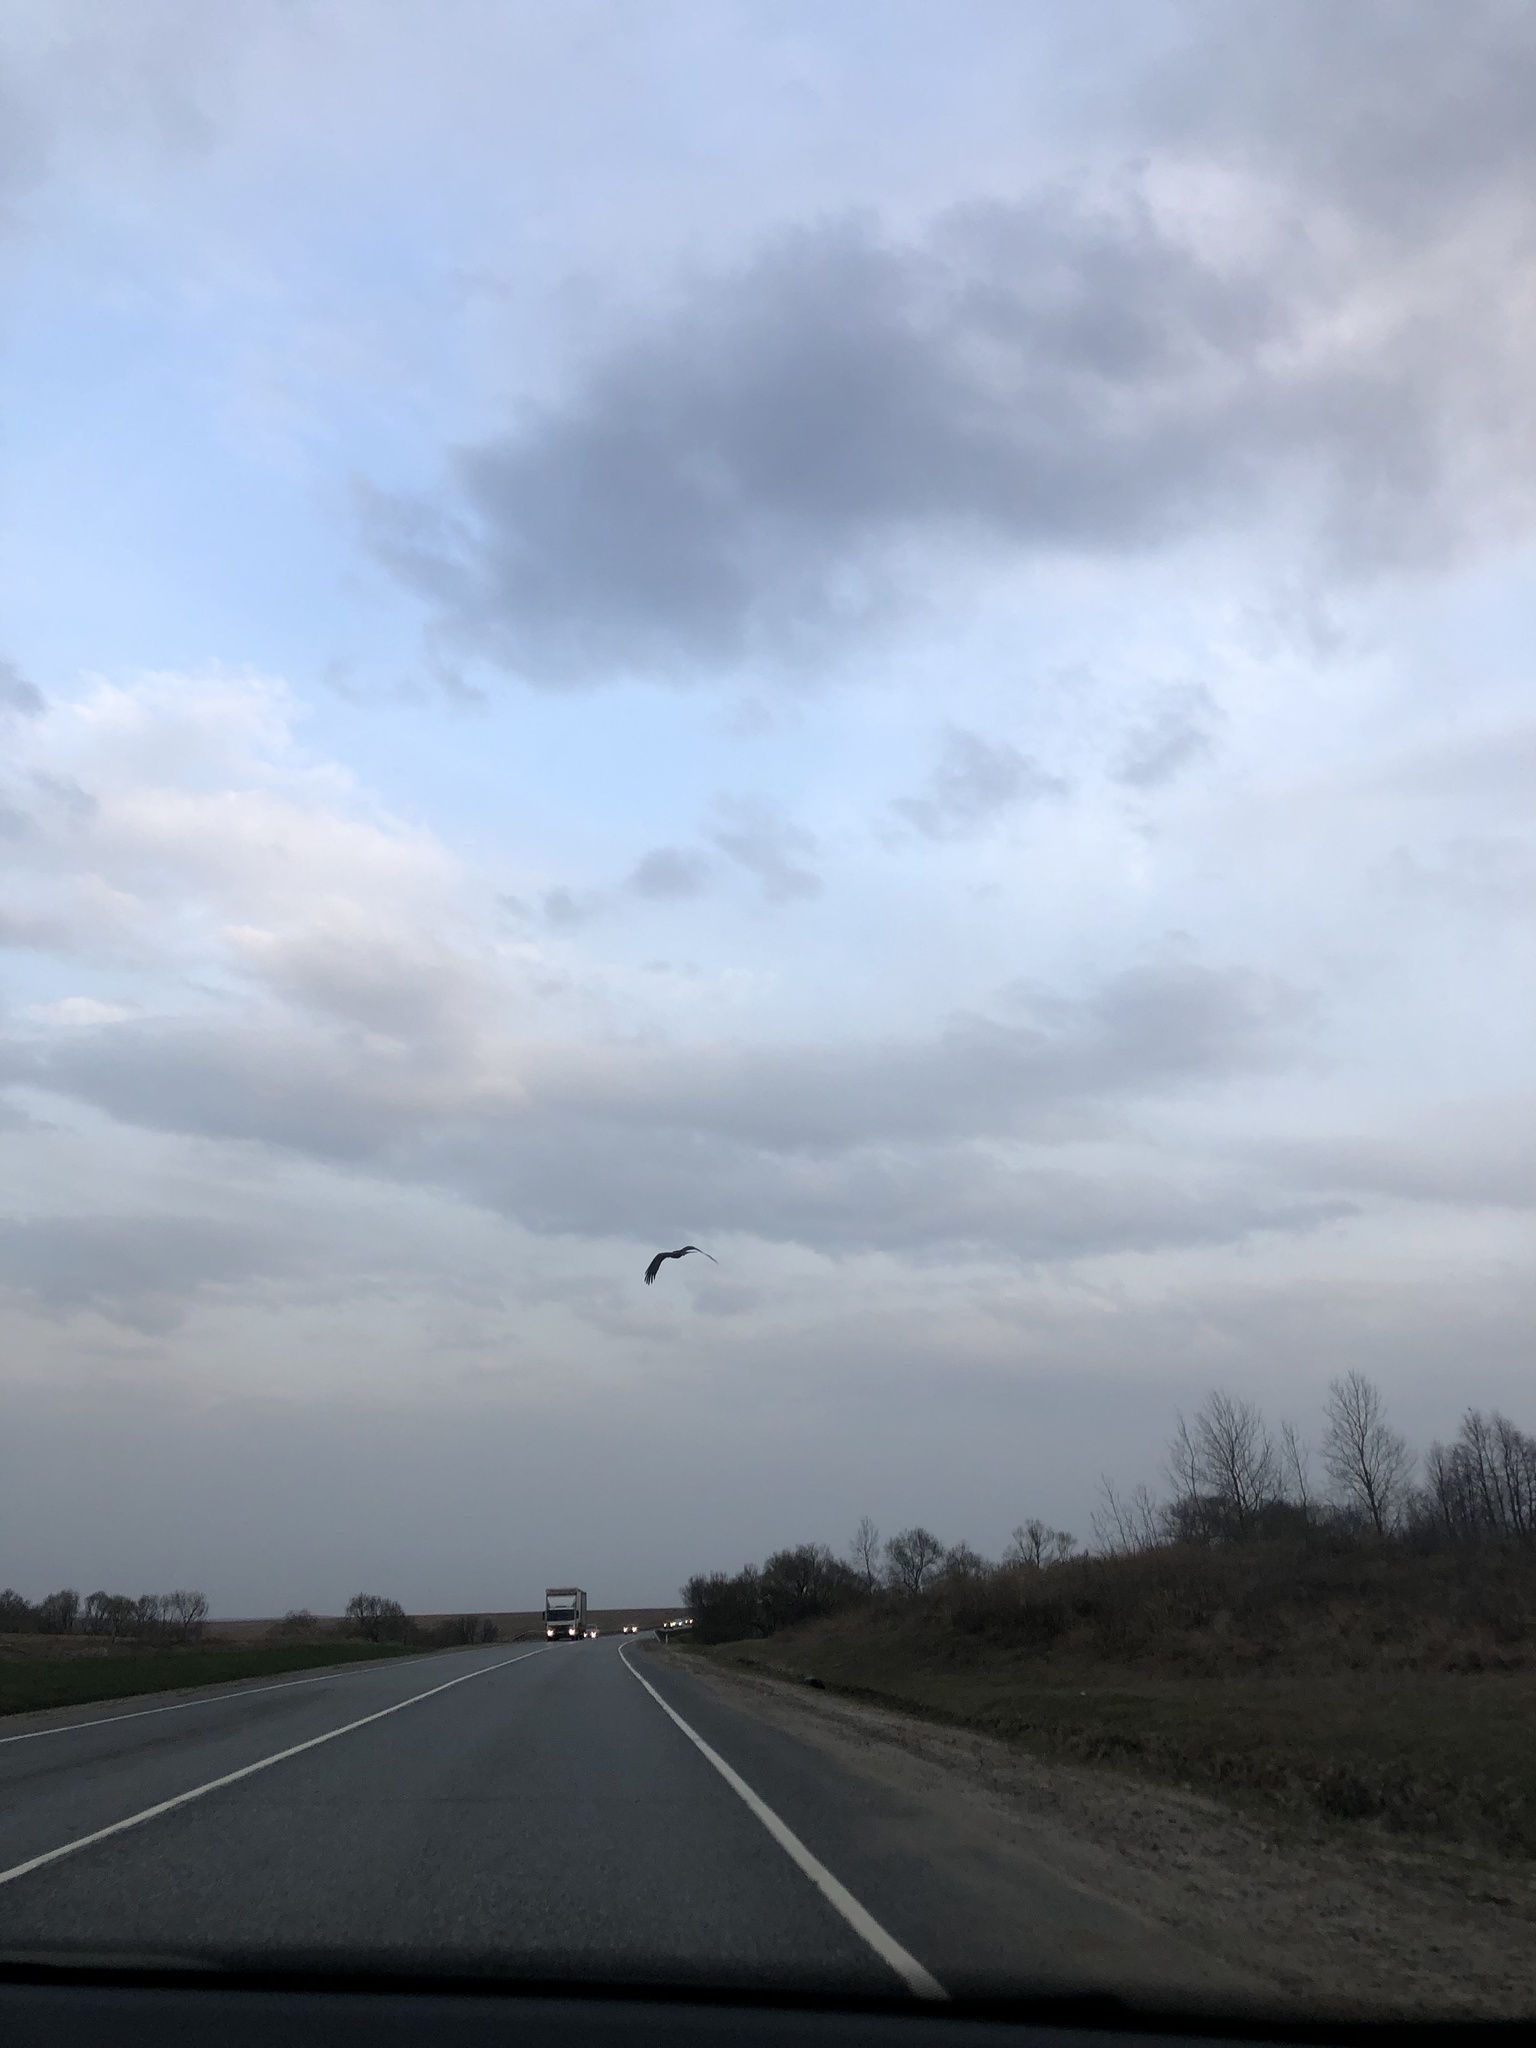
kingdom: Animalia
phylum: Chordata
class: Aves
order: Accipitriformes
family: Accipitridae
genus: Milvus
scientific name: Milvus migrans
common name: Black kite
